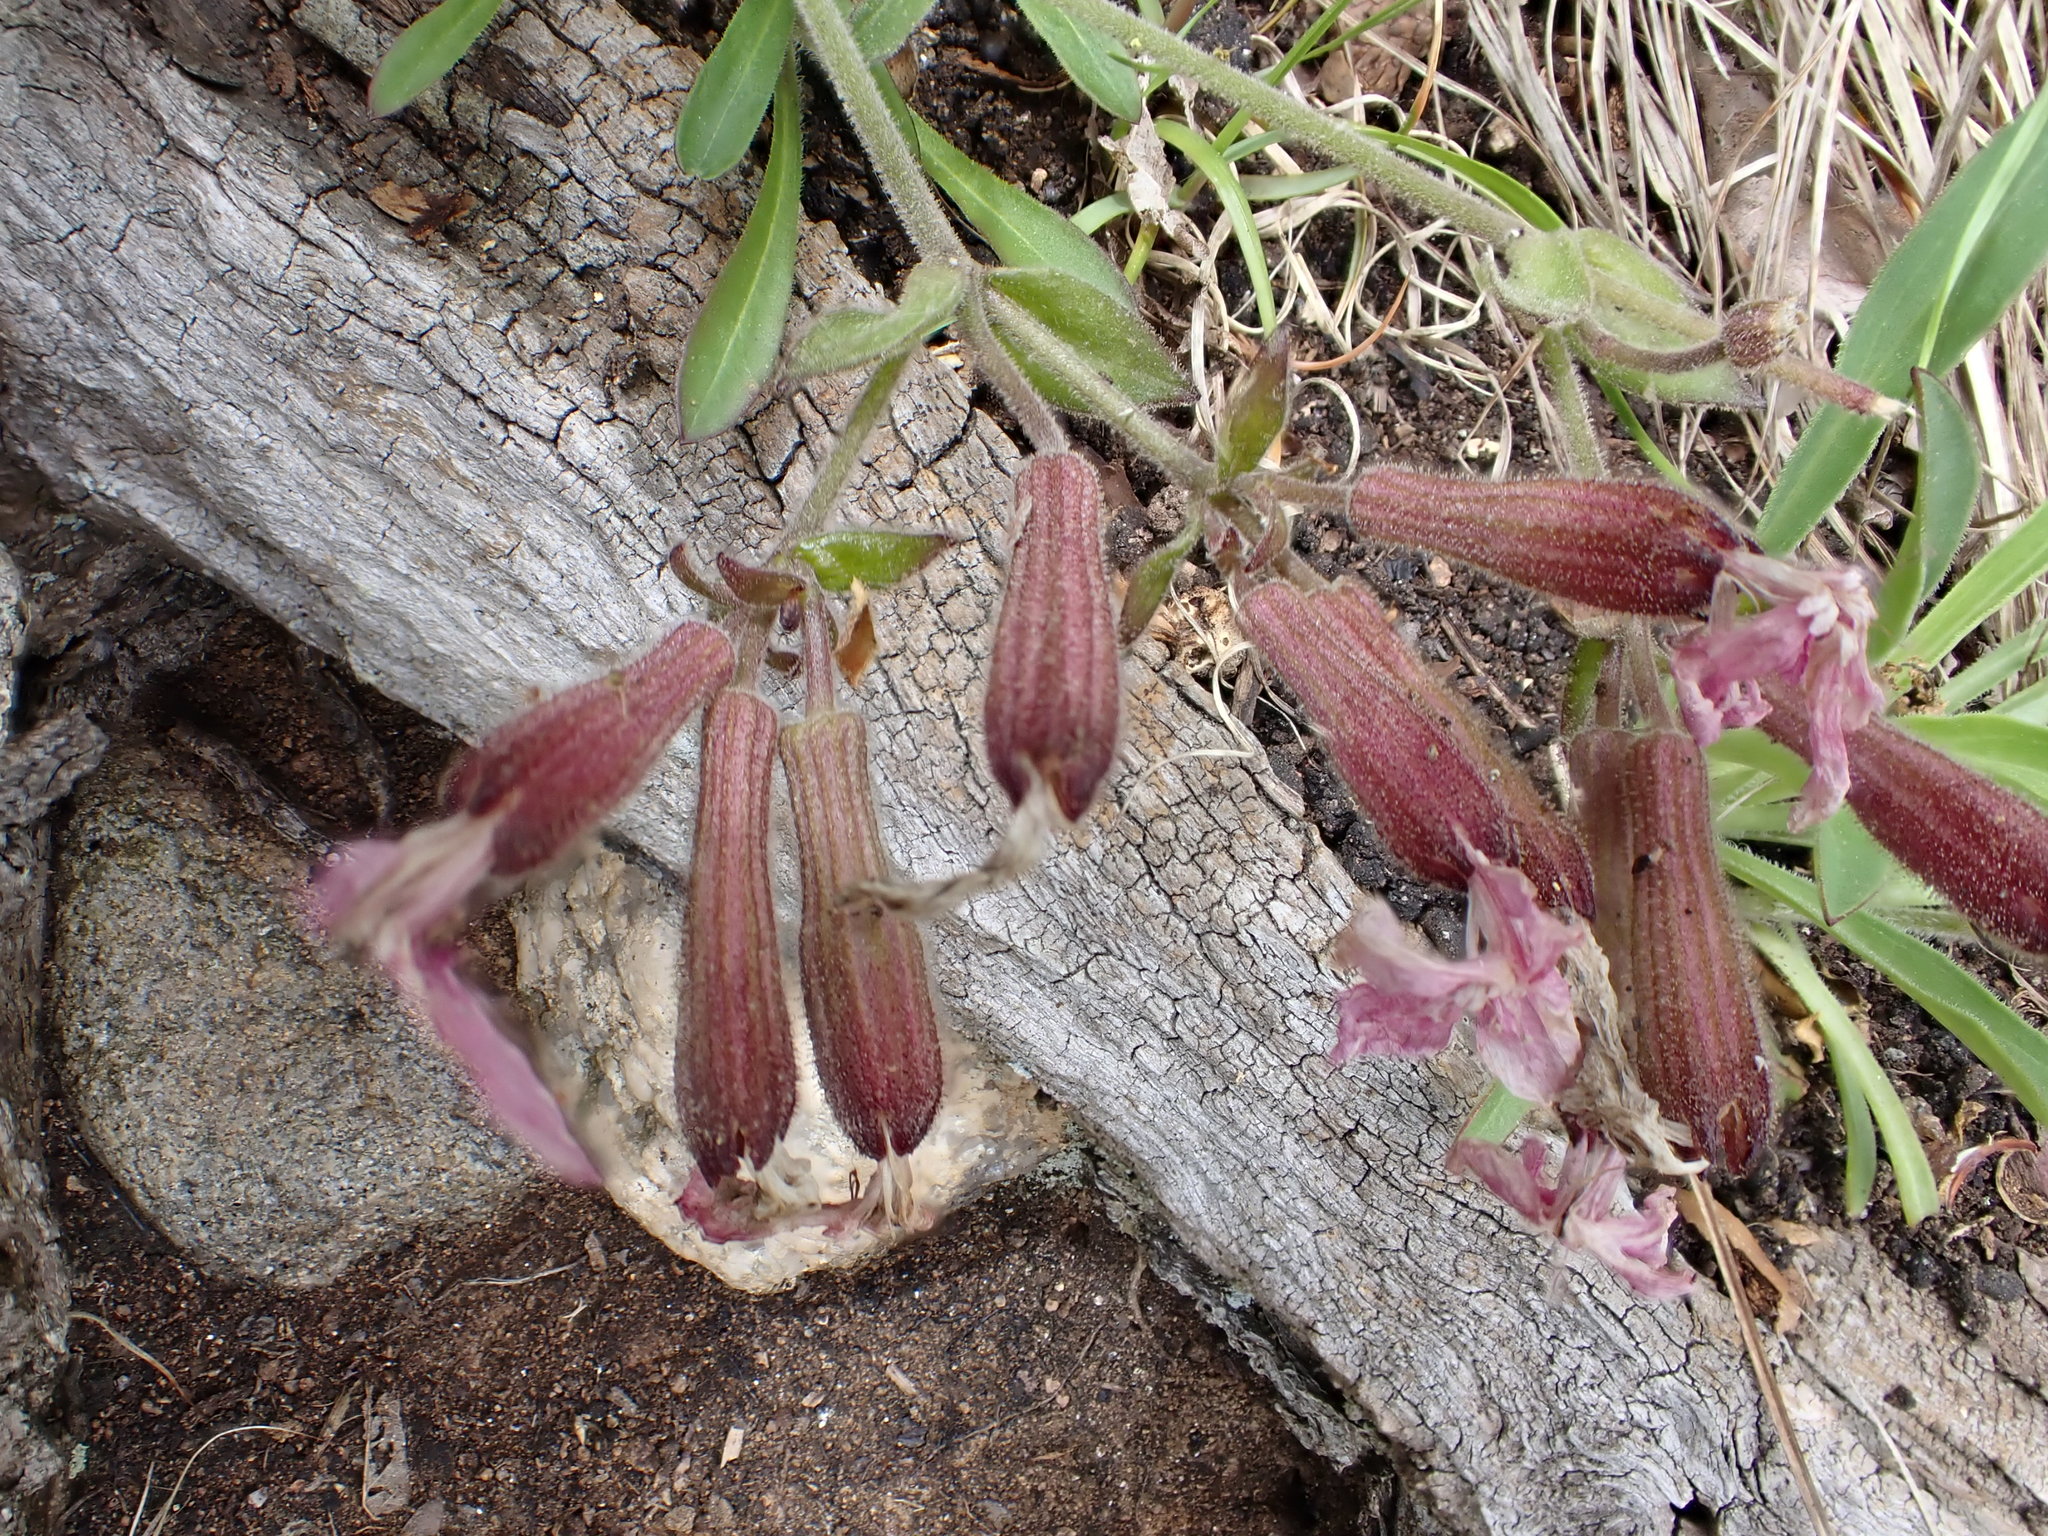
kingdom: Plantae
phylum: Tracheophyta
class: Magnoliopsida
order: Caryophyllales
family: Caryophyllaceae
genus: Silene
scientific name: Silene caroliniana
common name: Sticky catchfly
